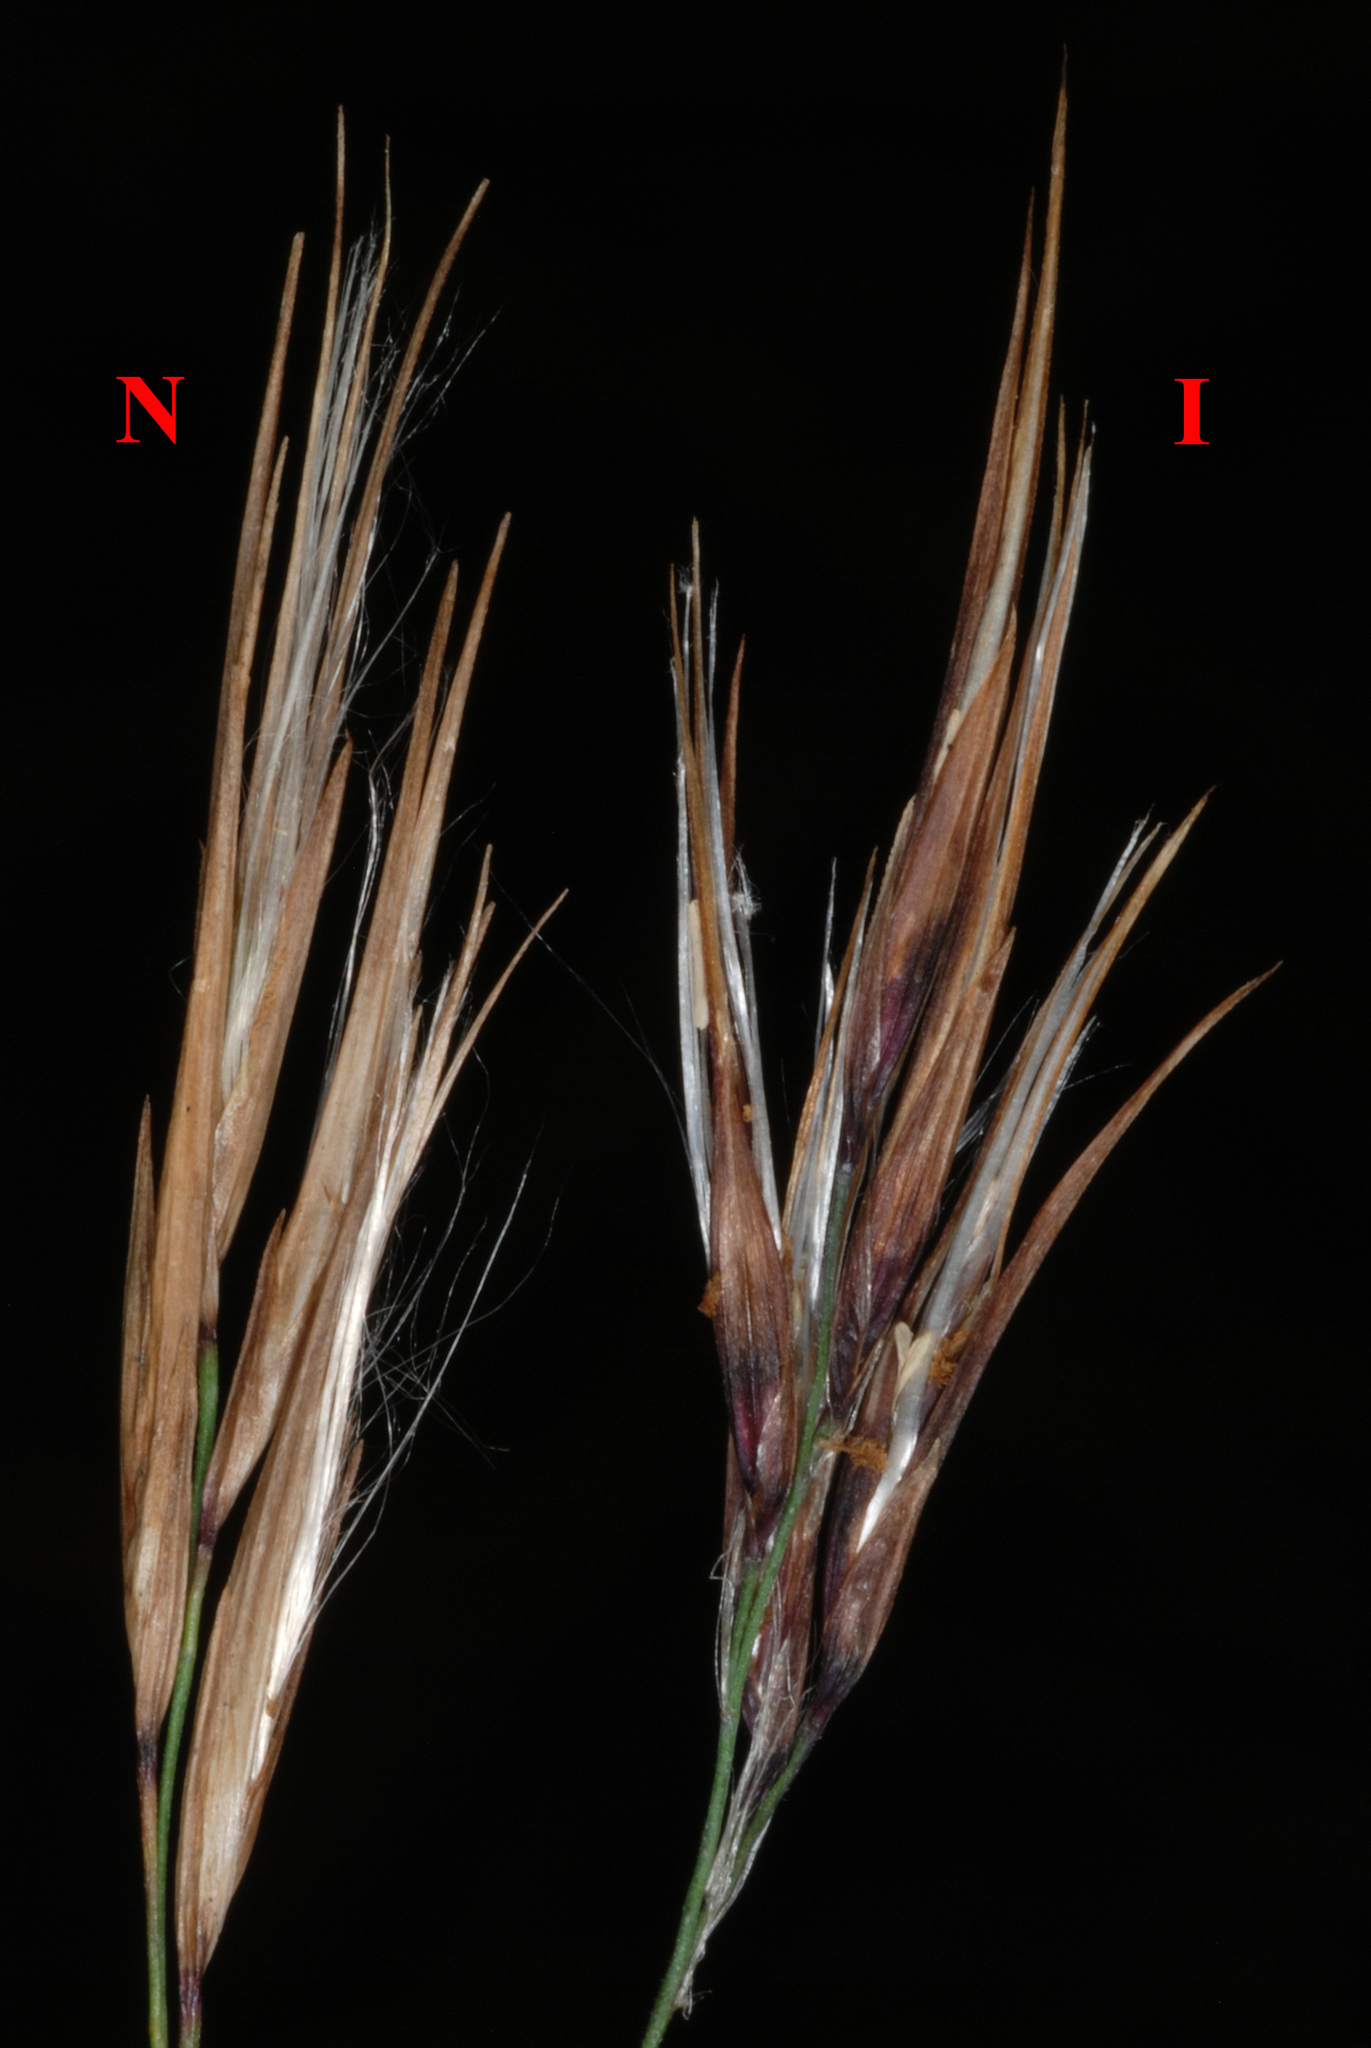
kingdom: Plantae
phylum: Tracheophyta
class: Liliopsida
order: Poales
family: Poaceae
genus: Phragmites
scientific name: Phragmites australis
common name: Common reed
